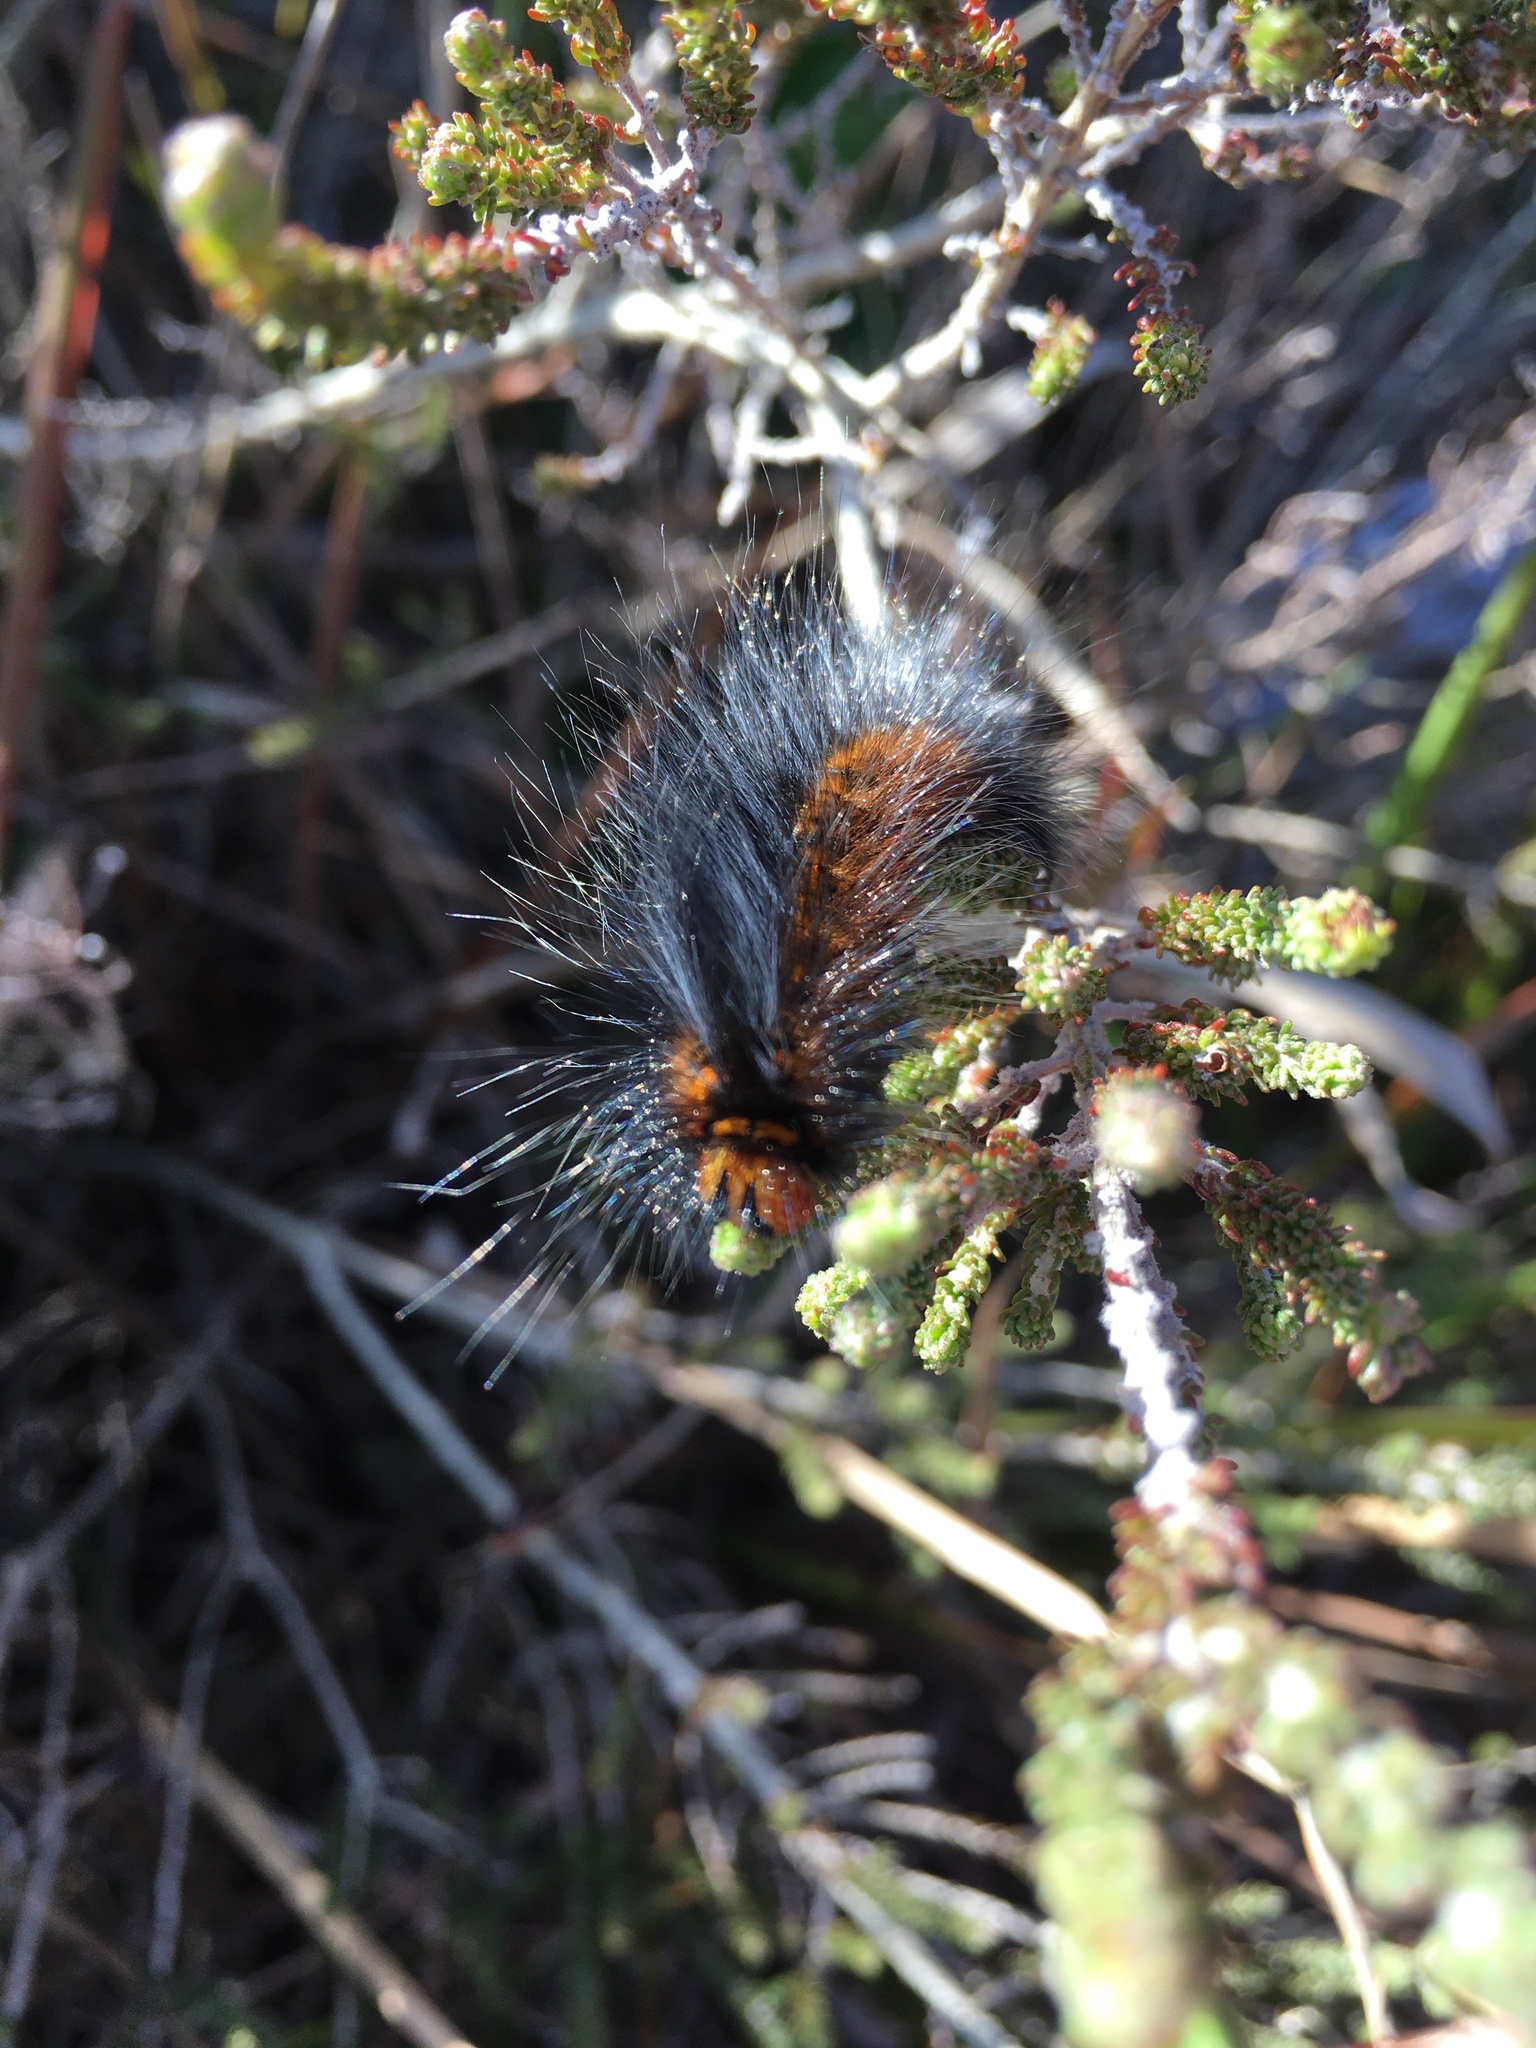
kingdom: Animalia
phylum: Arthropoda
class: Insecta
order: Lepidoptera
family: Lasiocampidae
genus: Mesocelis
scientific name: Mesocelis monticola
